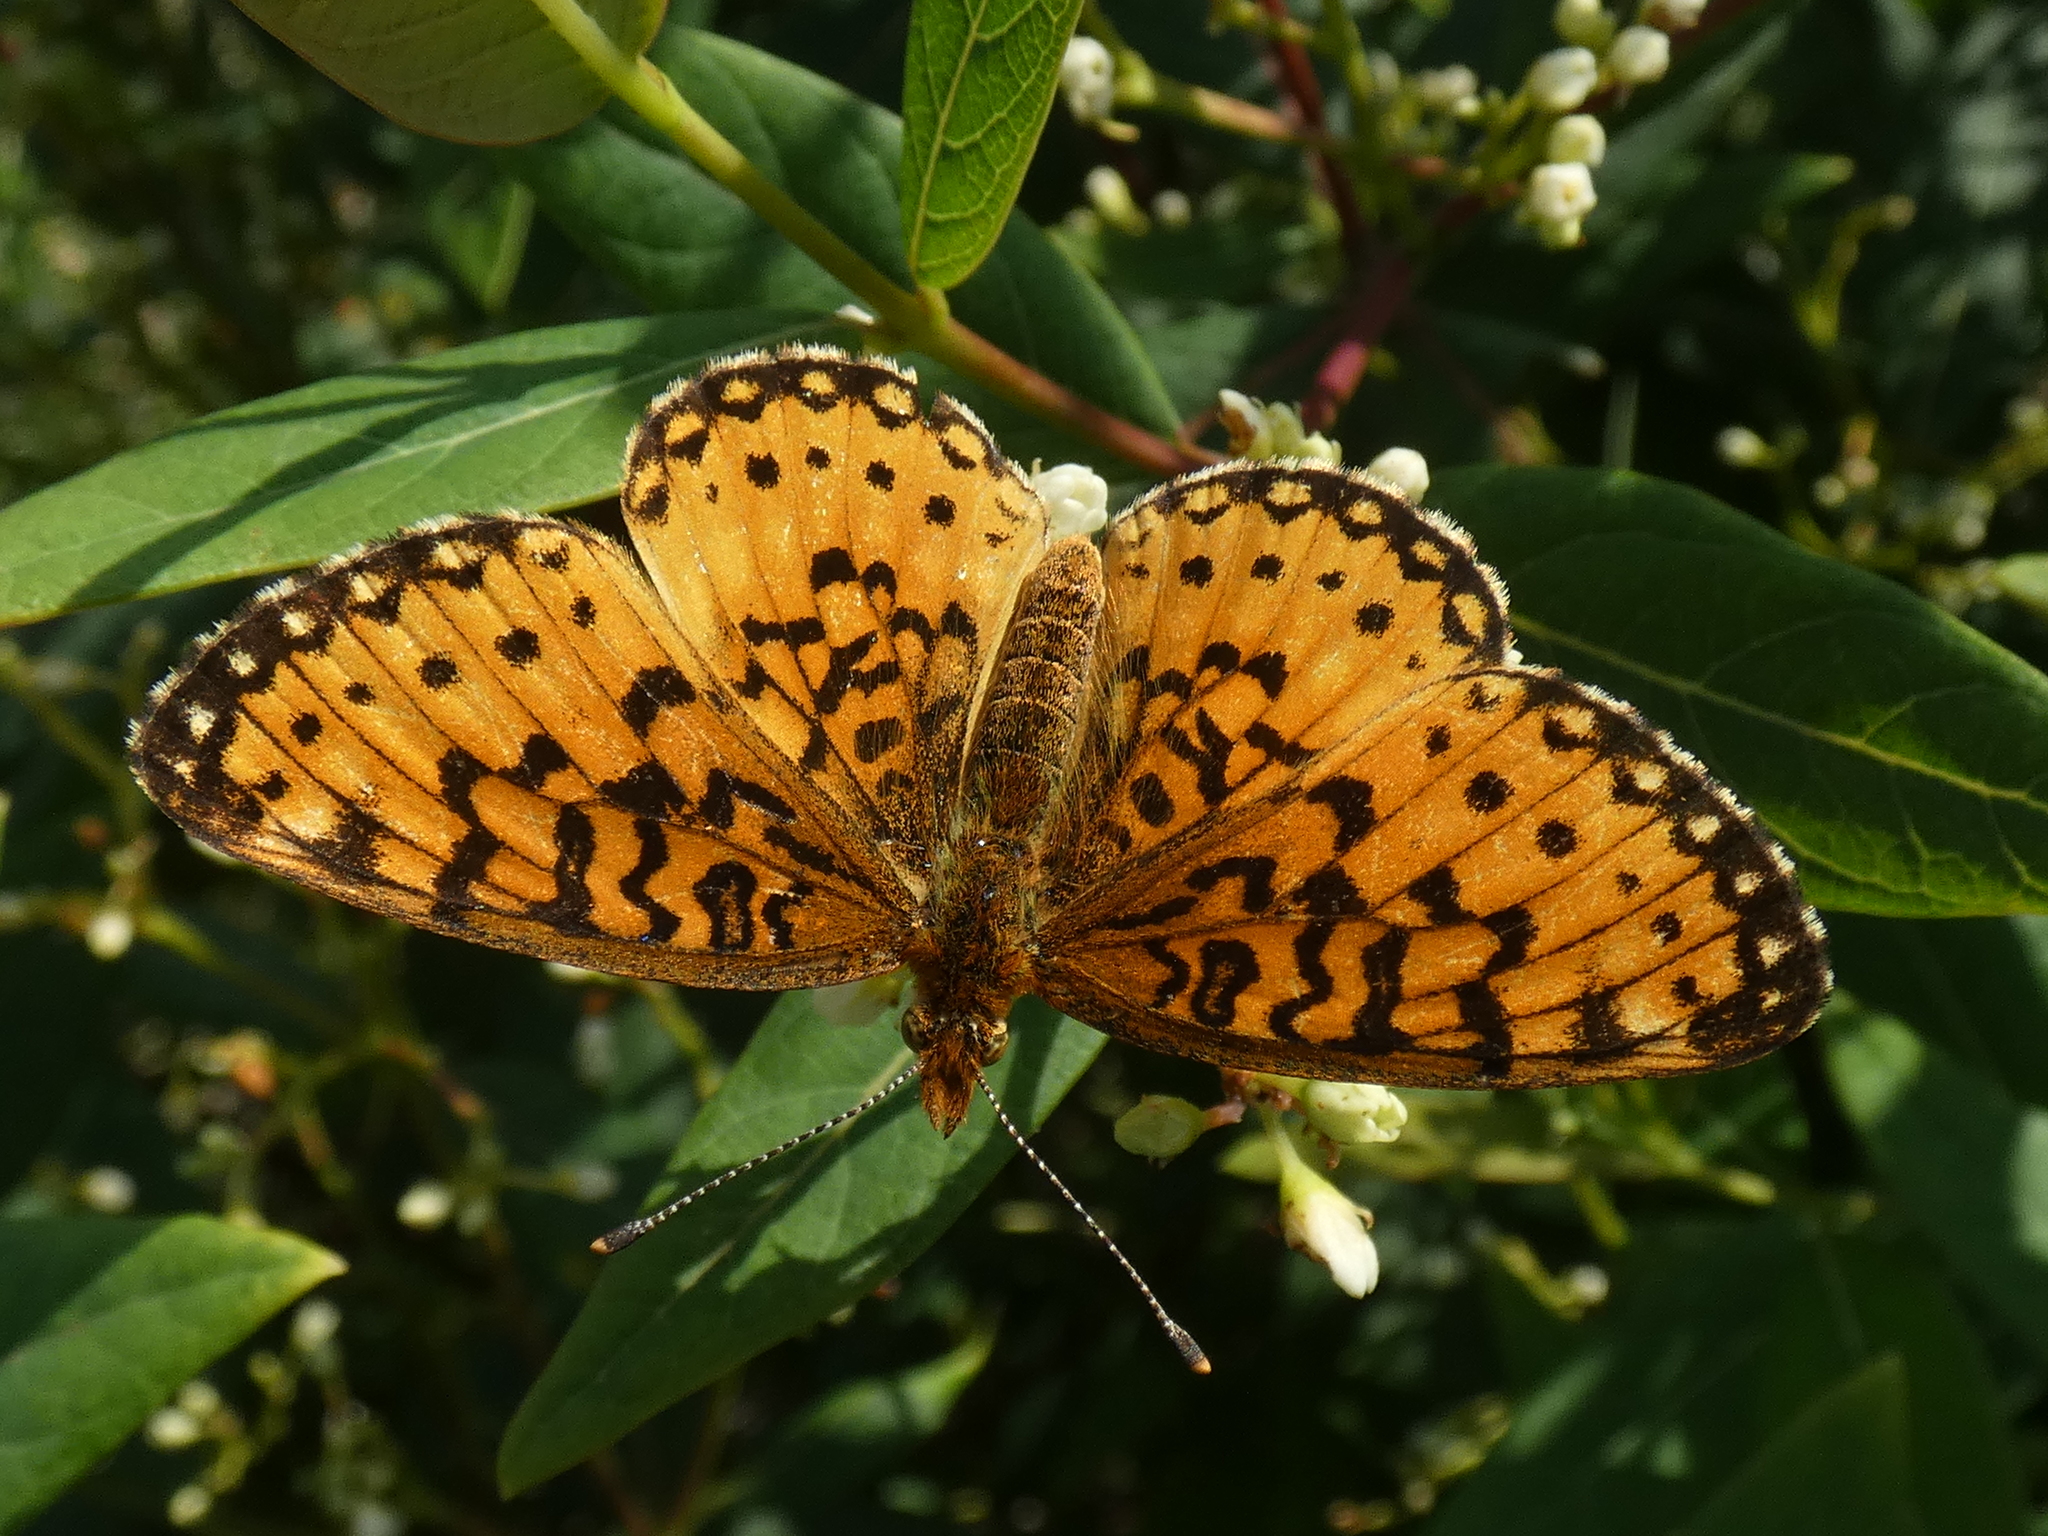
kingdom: Animalia
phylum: Arthropoda
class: Insecta
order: Lepidoptera
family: Nymphalidae
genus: Boloria
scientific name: Boloria
